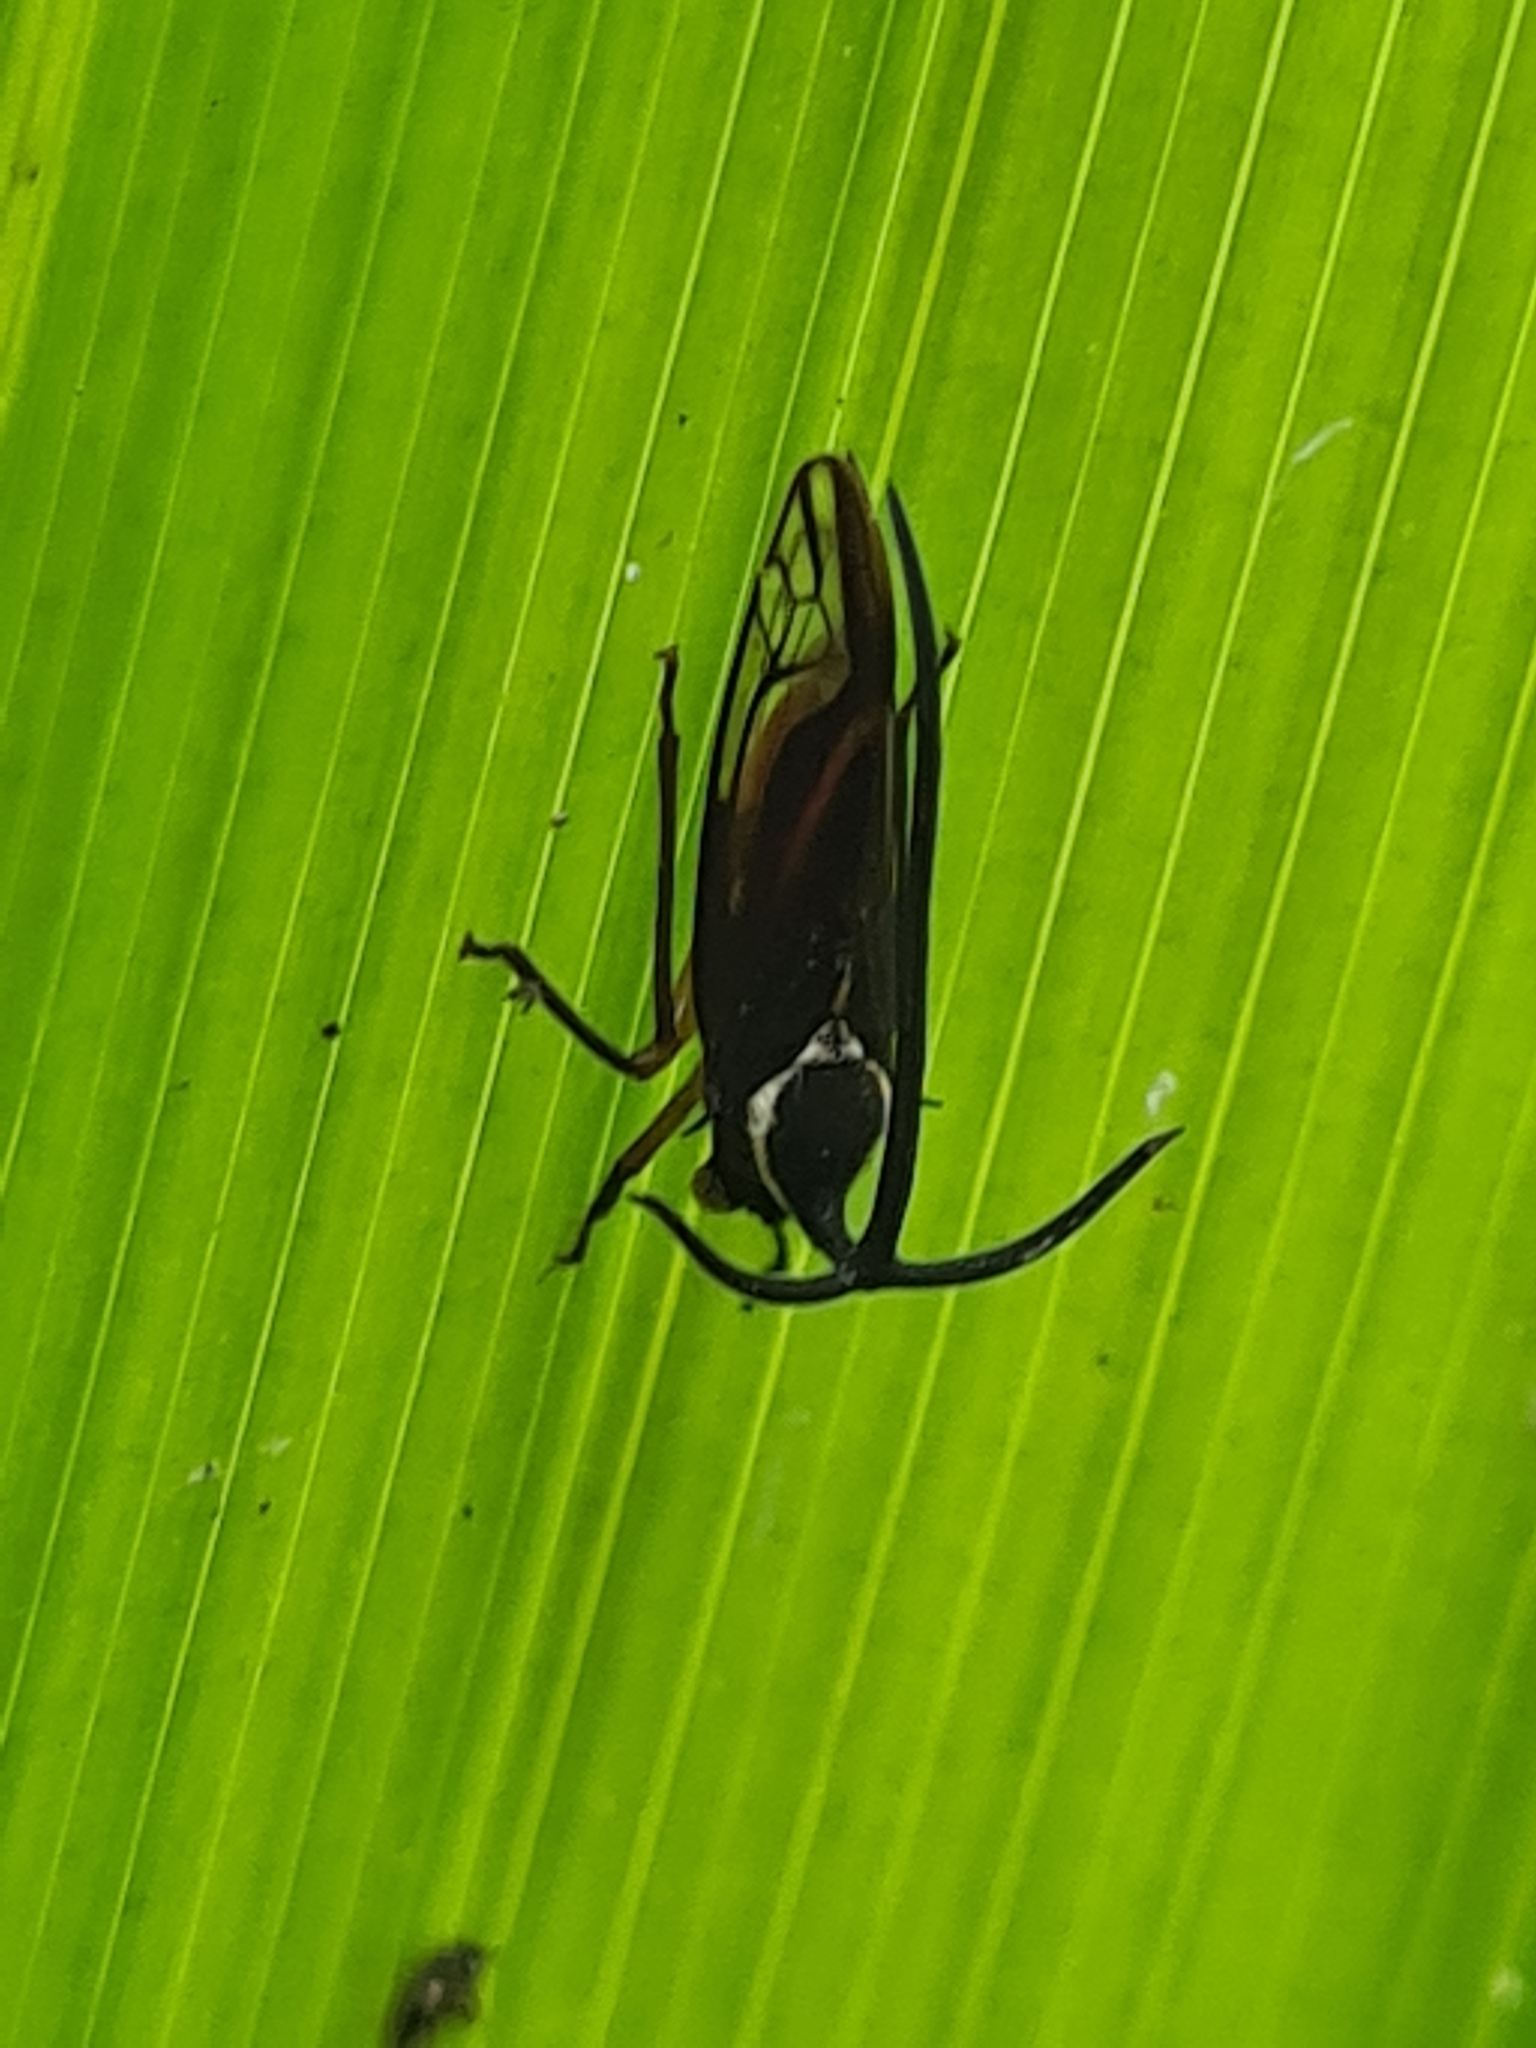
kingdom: Animalia
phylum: Arthropoda
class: Insecta
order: Hemiptera
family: Membracidae
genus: Stylocentrus
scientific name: Stylocentrus ancora
